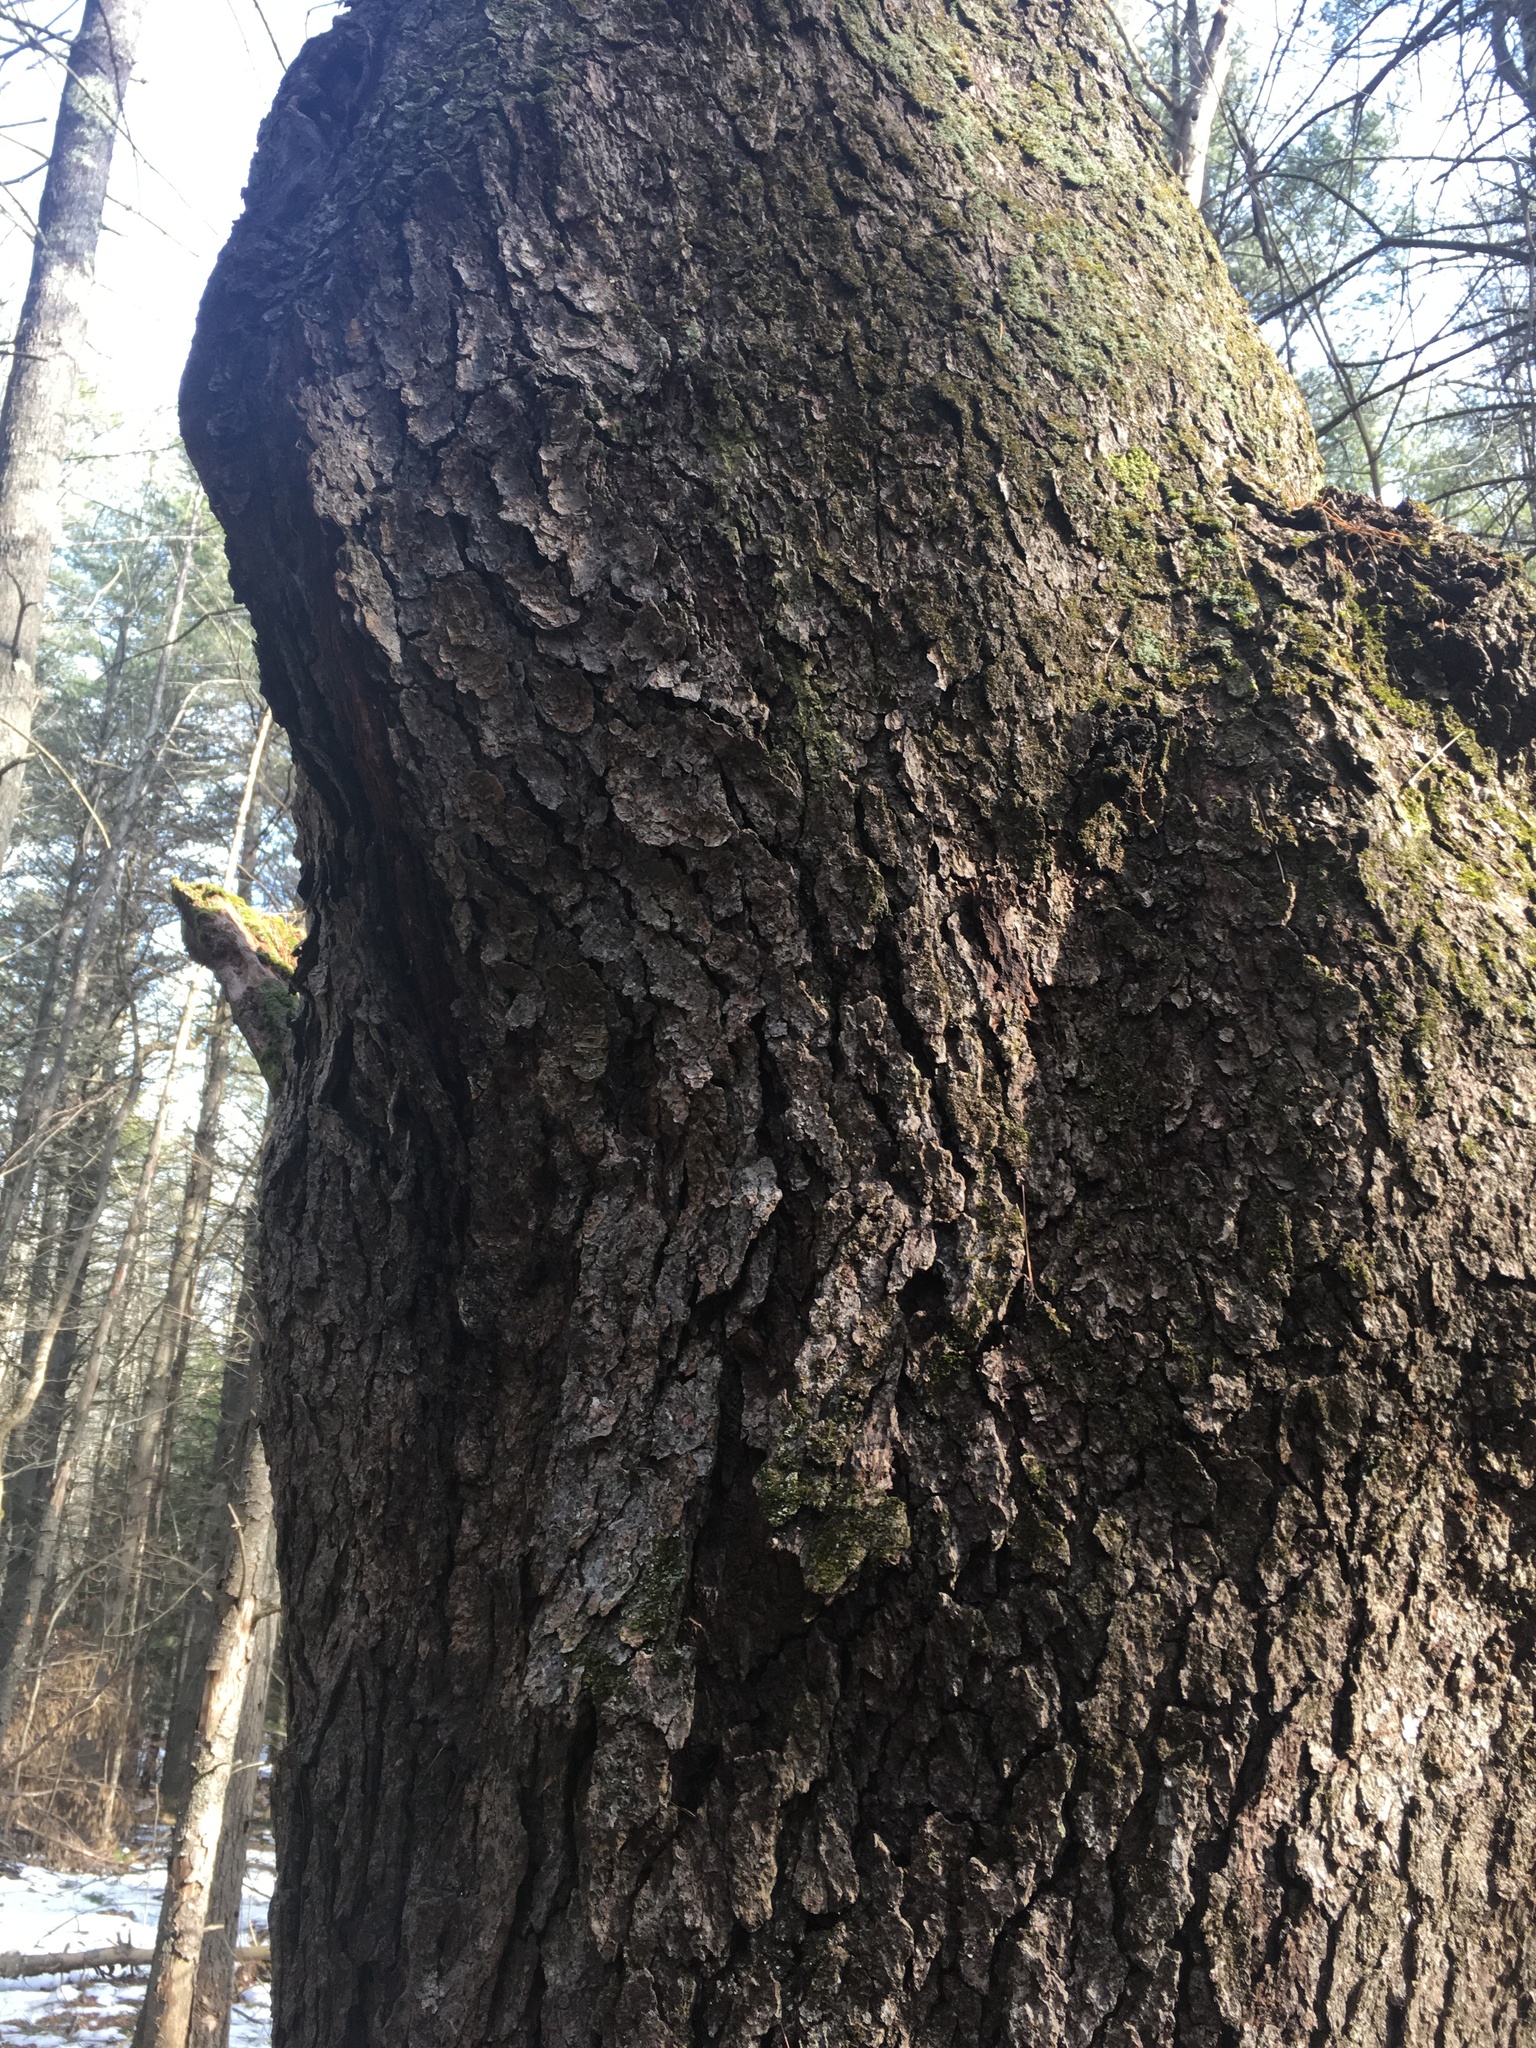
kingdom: Plantae
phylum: Tracheophyta
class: Magnoliopsida
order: Rosales
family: Rosaceae
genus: Prunus
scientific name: Prunus serotina
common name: Black cherry
